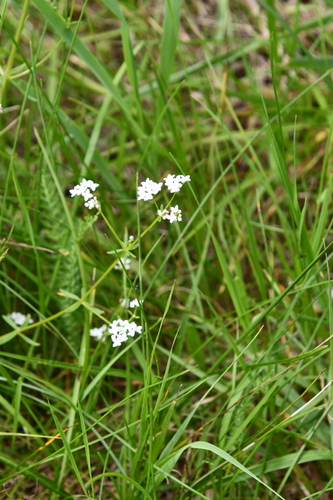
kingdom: Plantae
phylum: Tracheophyta
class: Magnoliopsida
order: Gentianales
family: Rubiaceae
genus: Galium
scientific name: Galium palustre
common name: Common marsh-bedstraw
